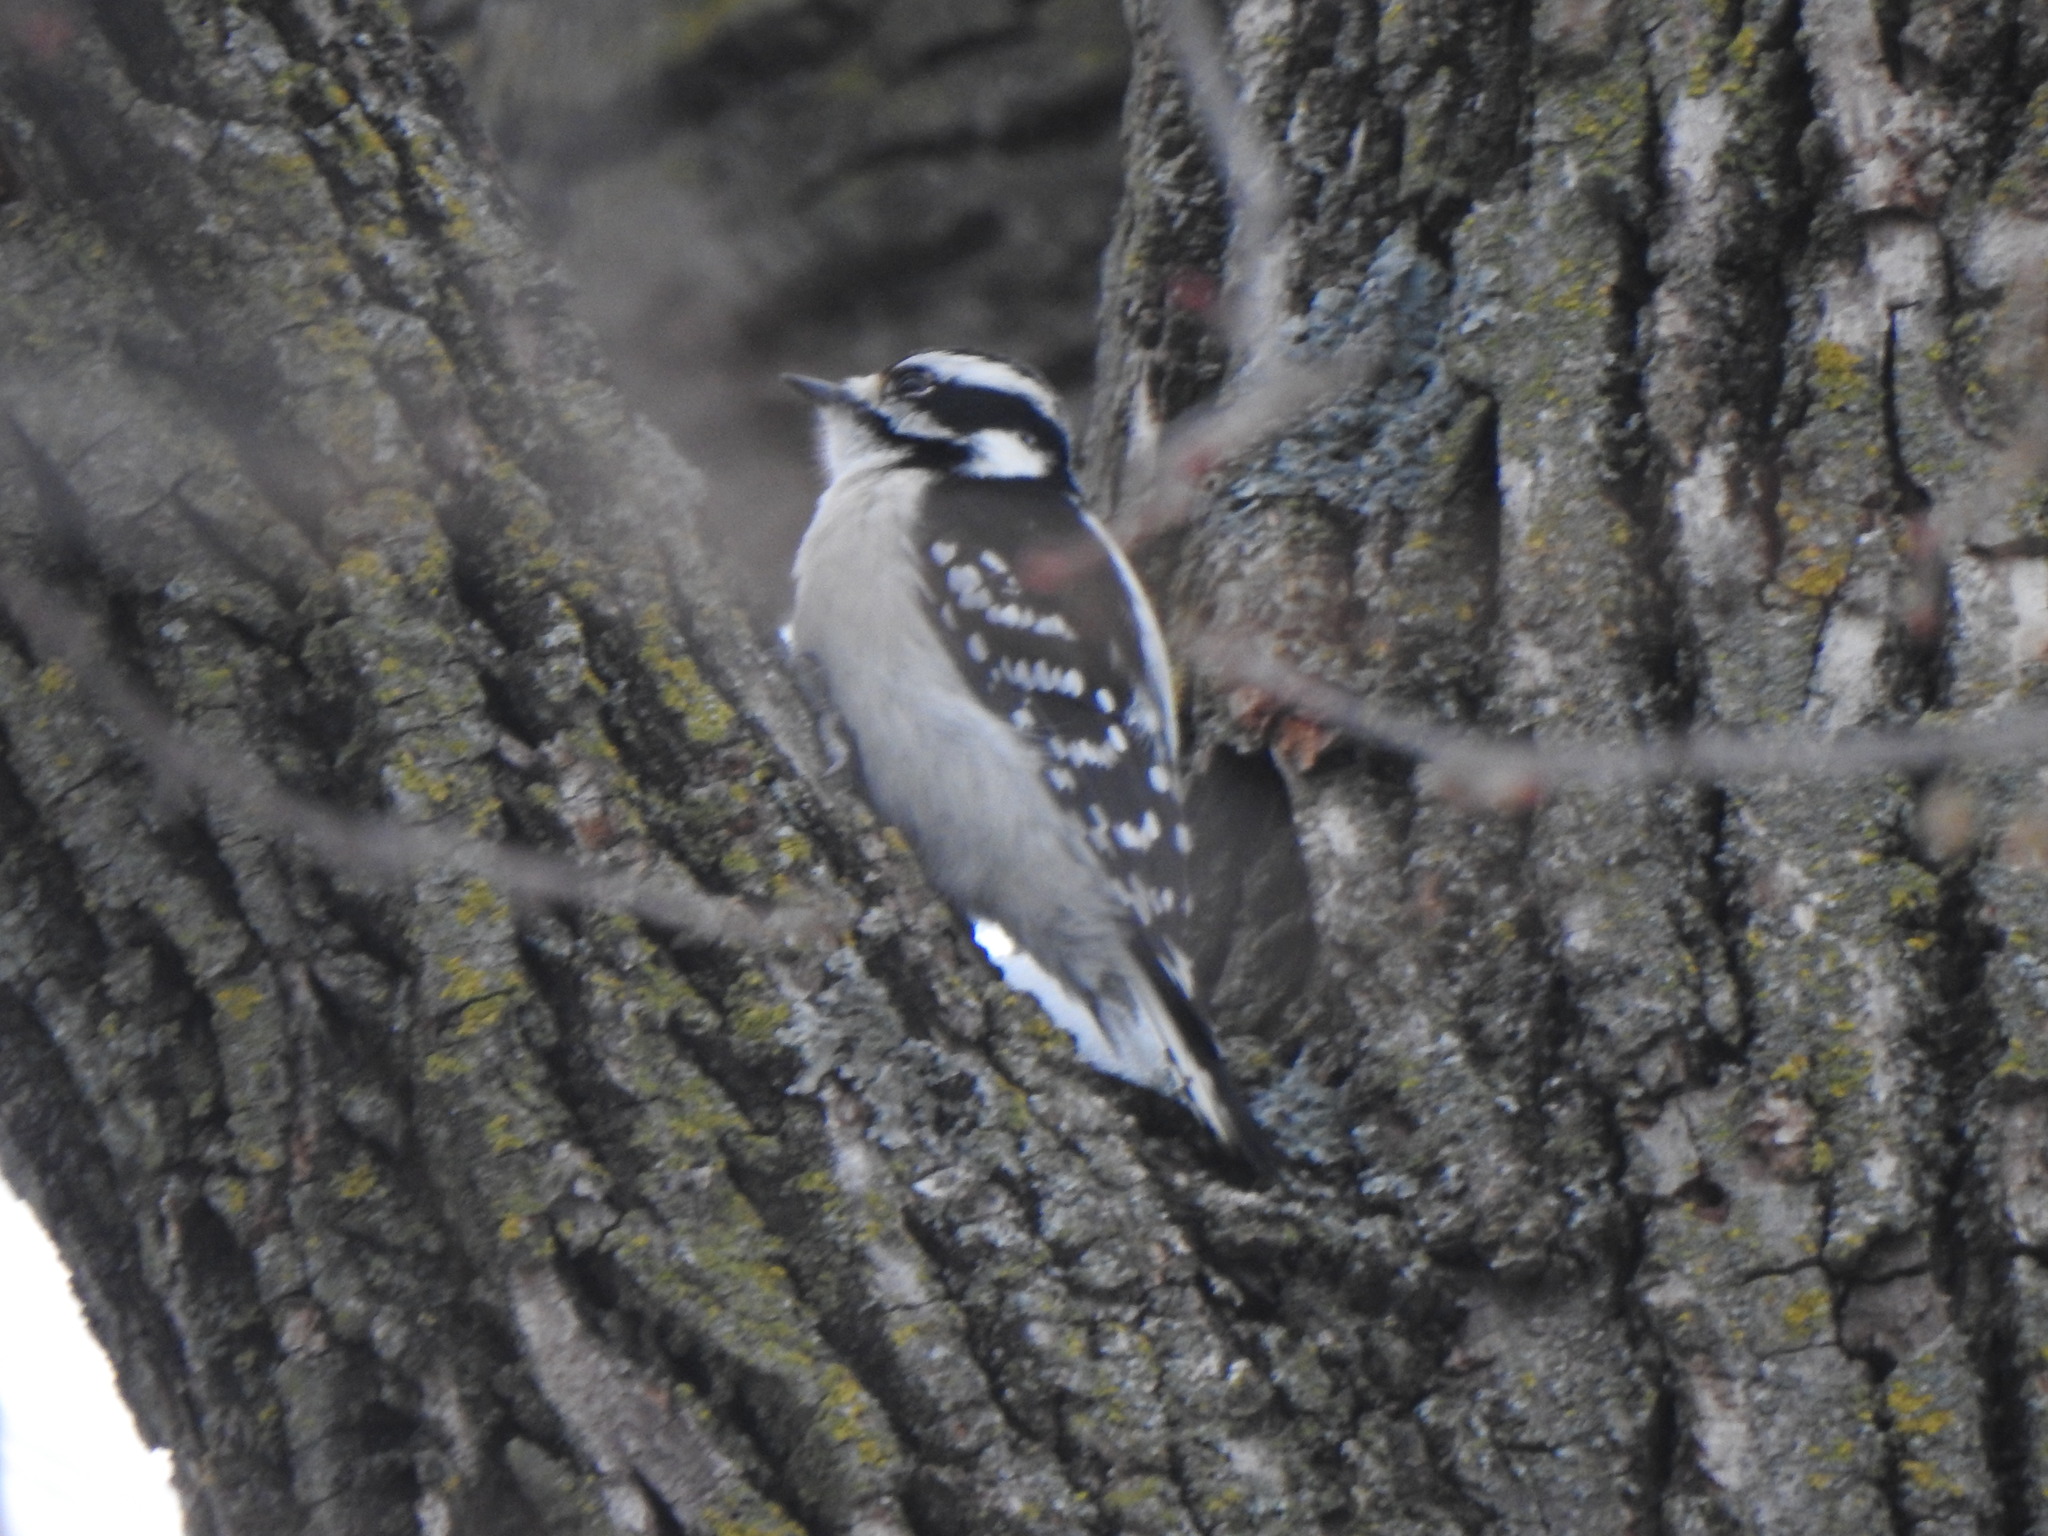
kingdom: Animalia
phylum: Chordata
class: Aves
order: Piciformes
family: Picidae
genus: Dryobates
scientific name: Dryobates pubescens
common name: Downy woodpecker
